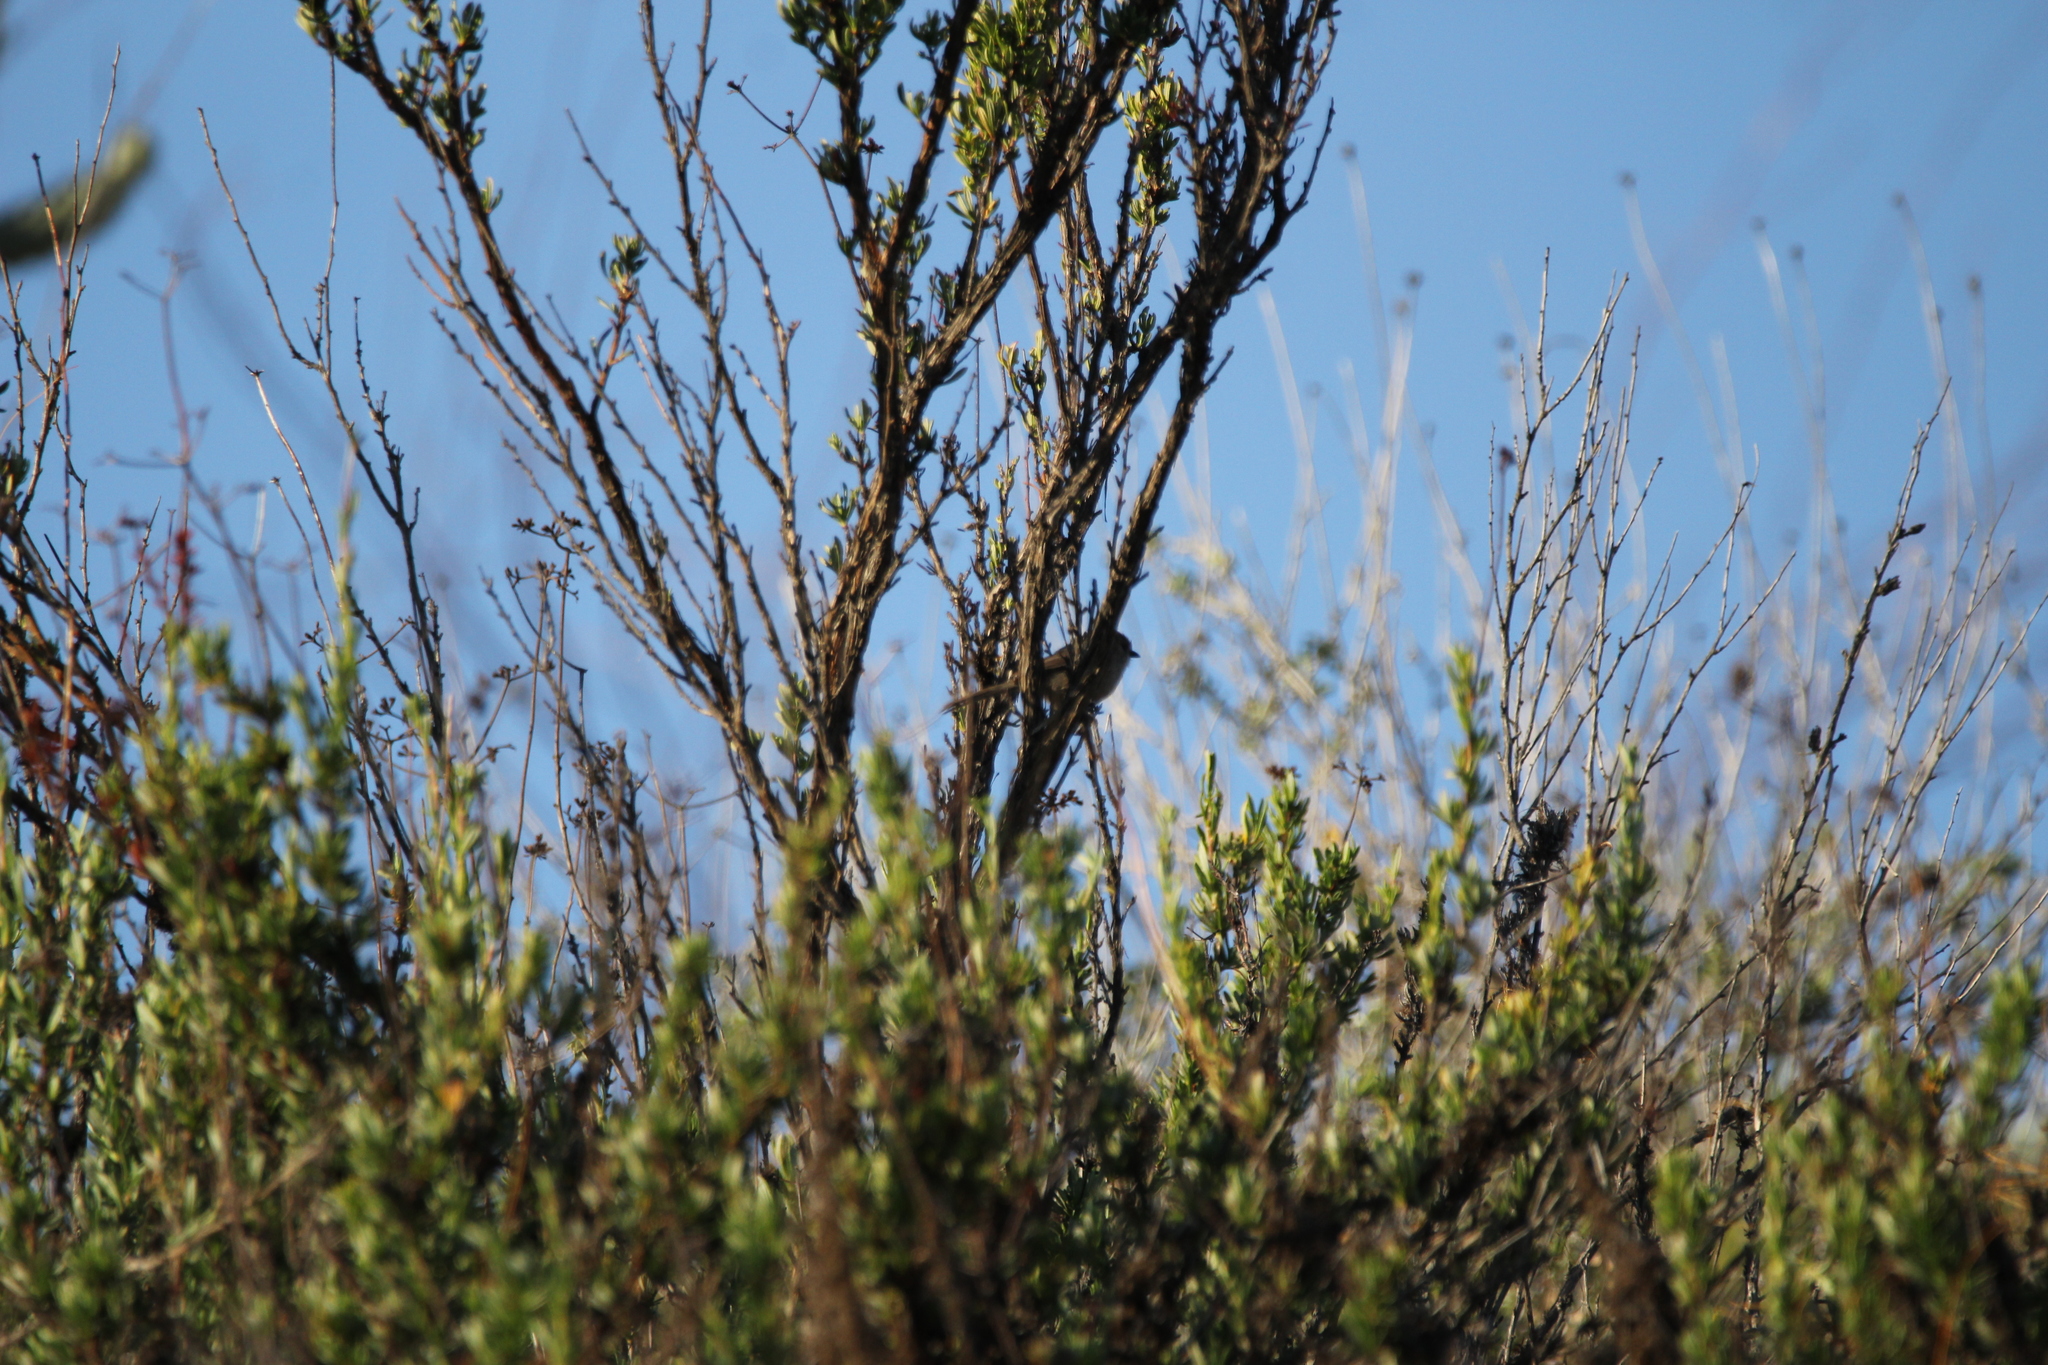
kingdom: Animalia
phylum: Chordata
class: Aves
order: Passeriformes
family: Aegithalidae
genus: Psaltriparus
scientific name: Psaltriparus minimus
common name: American bushtit
